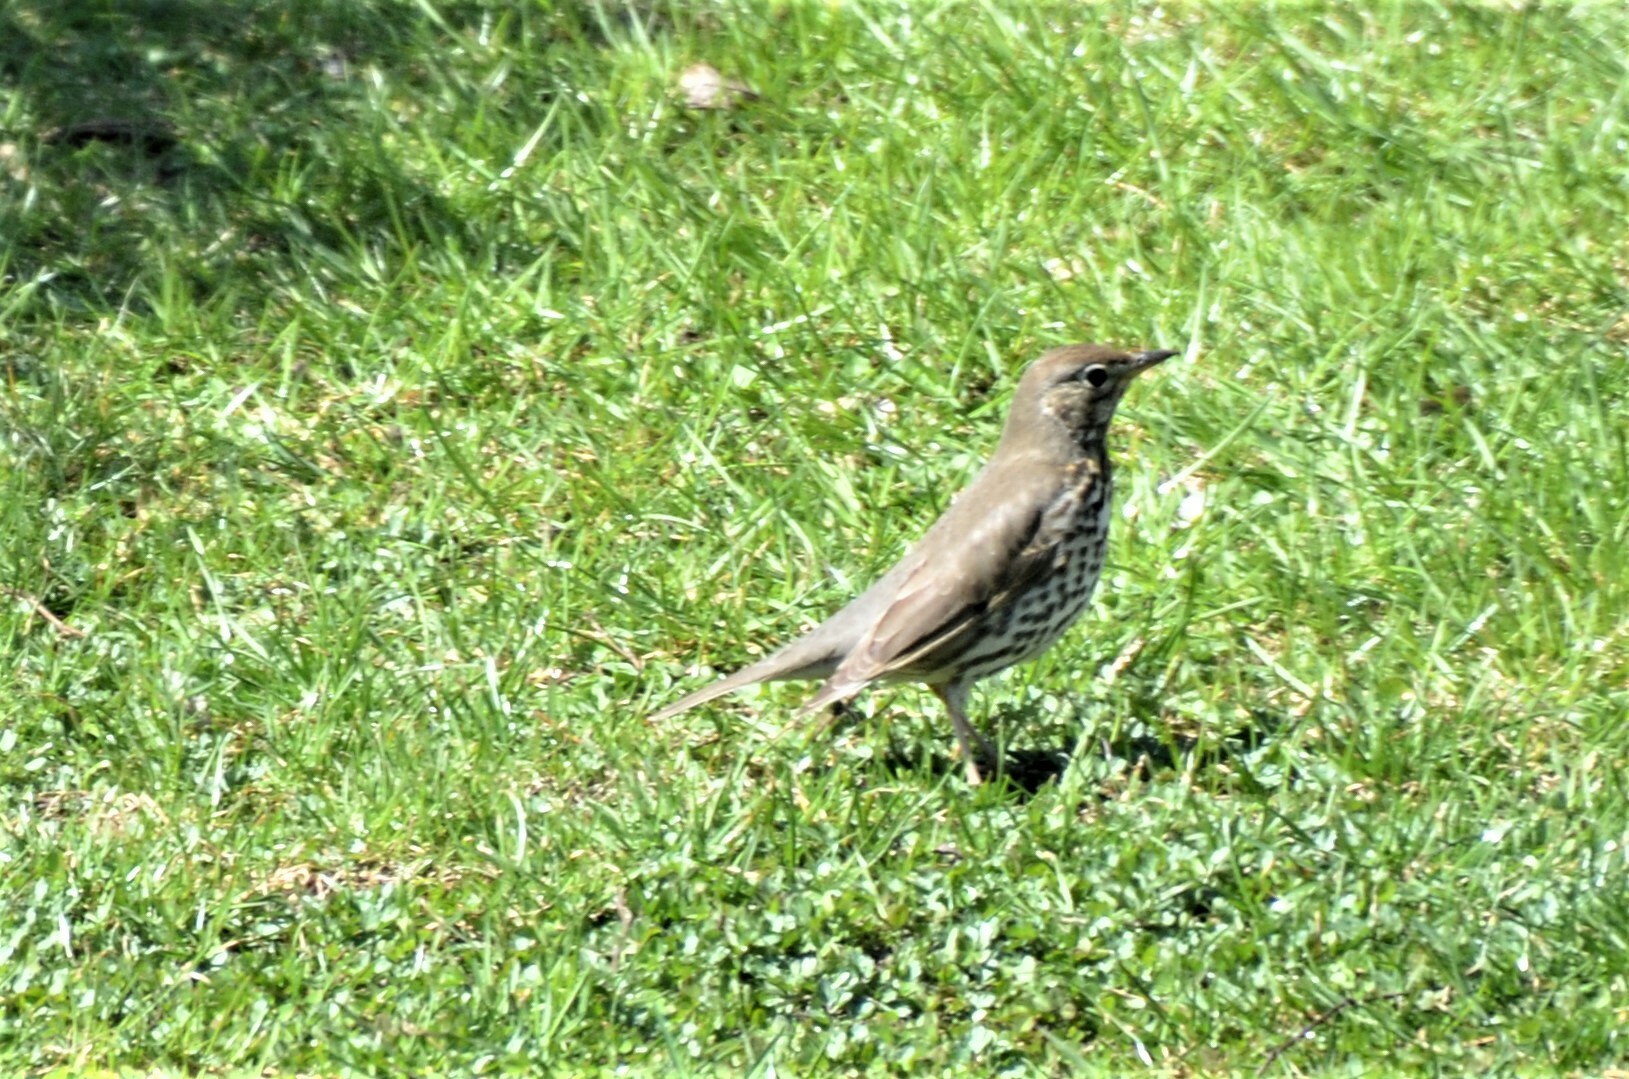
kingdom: Animalia
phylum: Chordata
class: Aves
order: Passeriformes
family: Turdidae
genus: Turdus
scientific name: Turdus philomelos
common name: Song thrush
